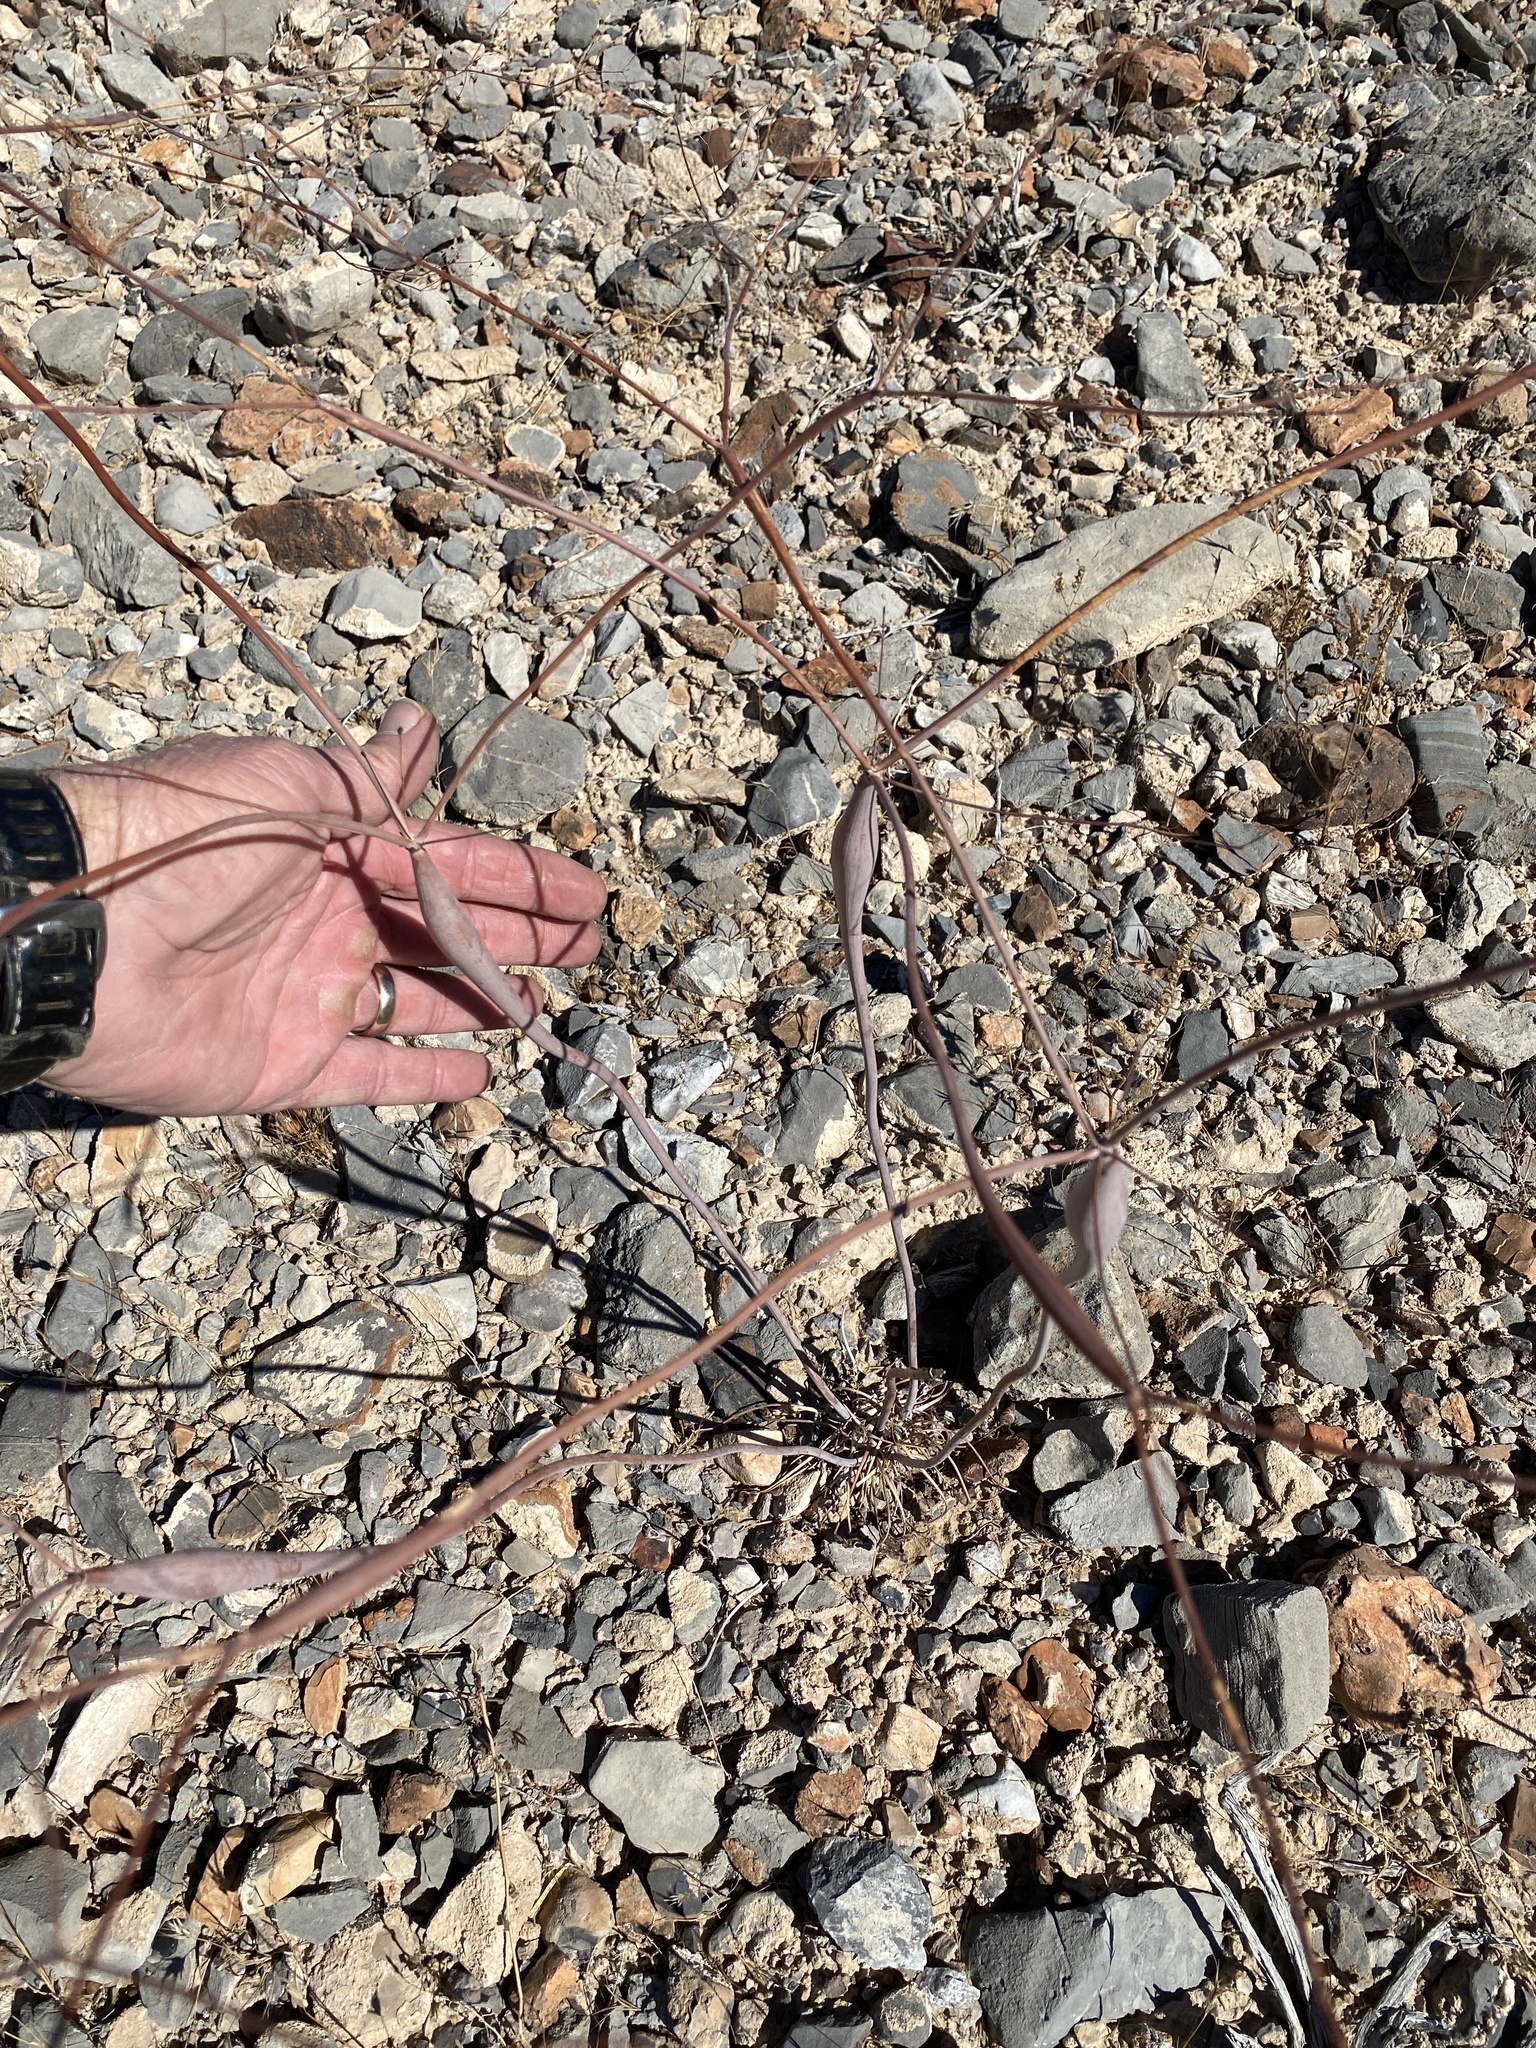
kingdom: Plantae
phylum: Tracheophyta
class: Magnoliopsida
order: Caryophyllales
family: Polygonaceae
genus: Eriogonum
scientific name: Eriogonum inflatum
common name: Desert trumpet
